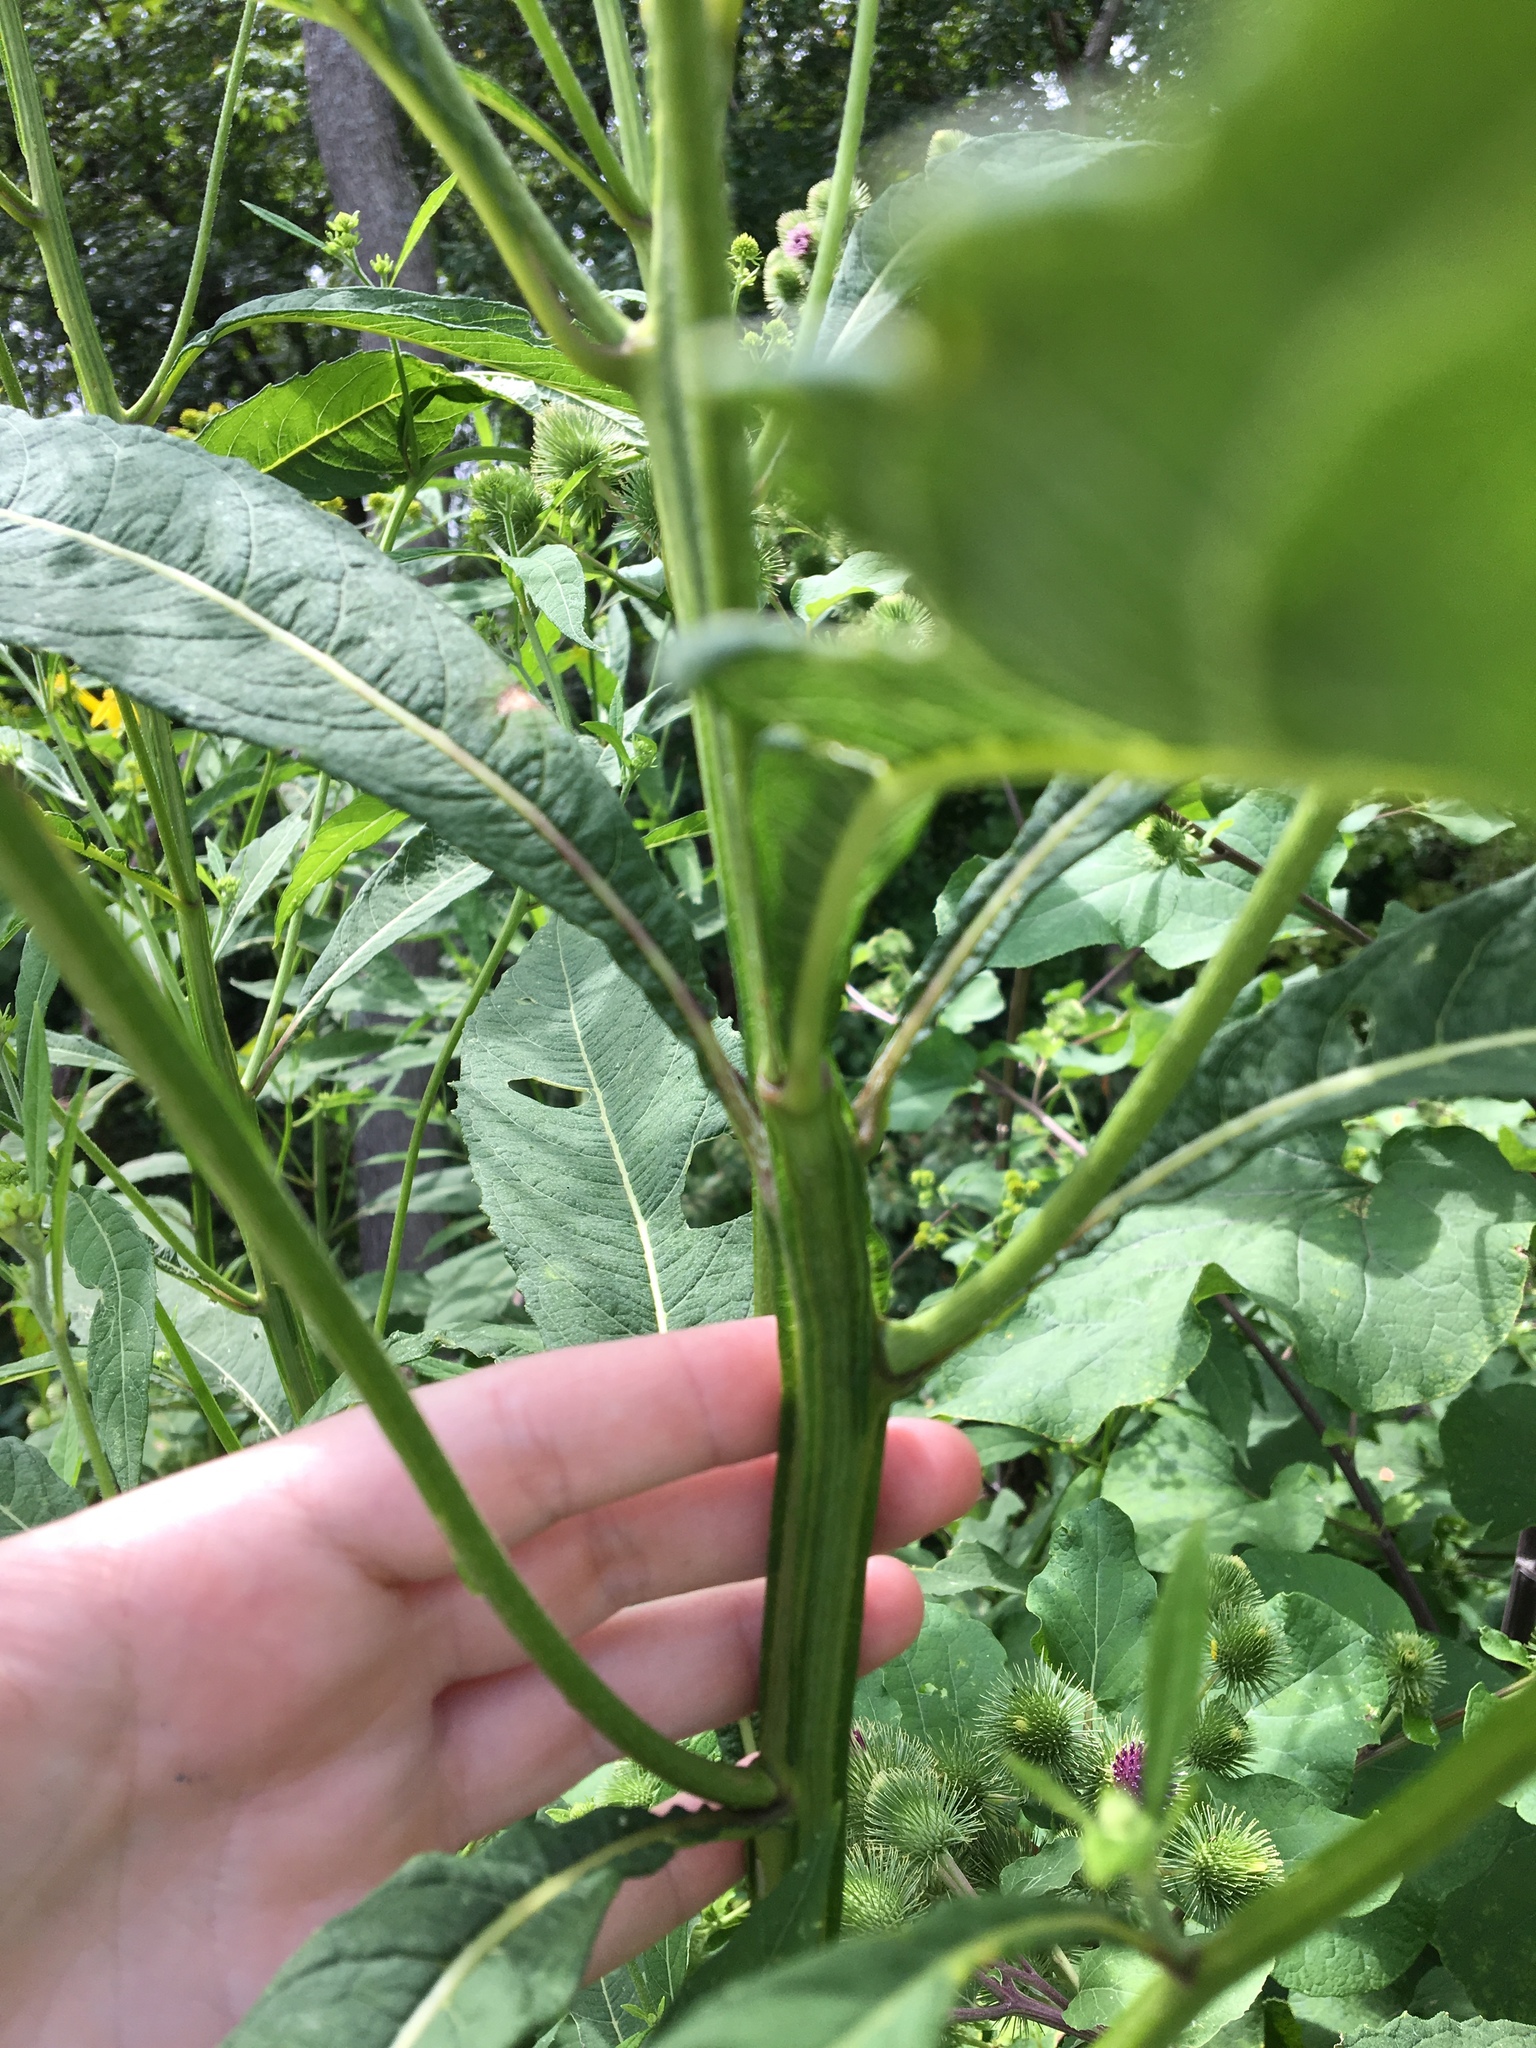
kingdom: Plantae
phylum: Tracheophyta
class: Magnoliopsida
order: Asterales
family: Asteraceae
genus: Verbesina
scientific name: Verbesina alternifolia
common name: Wingstem
